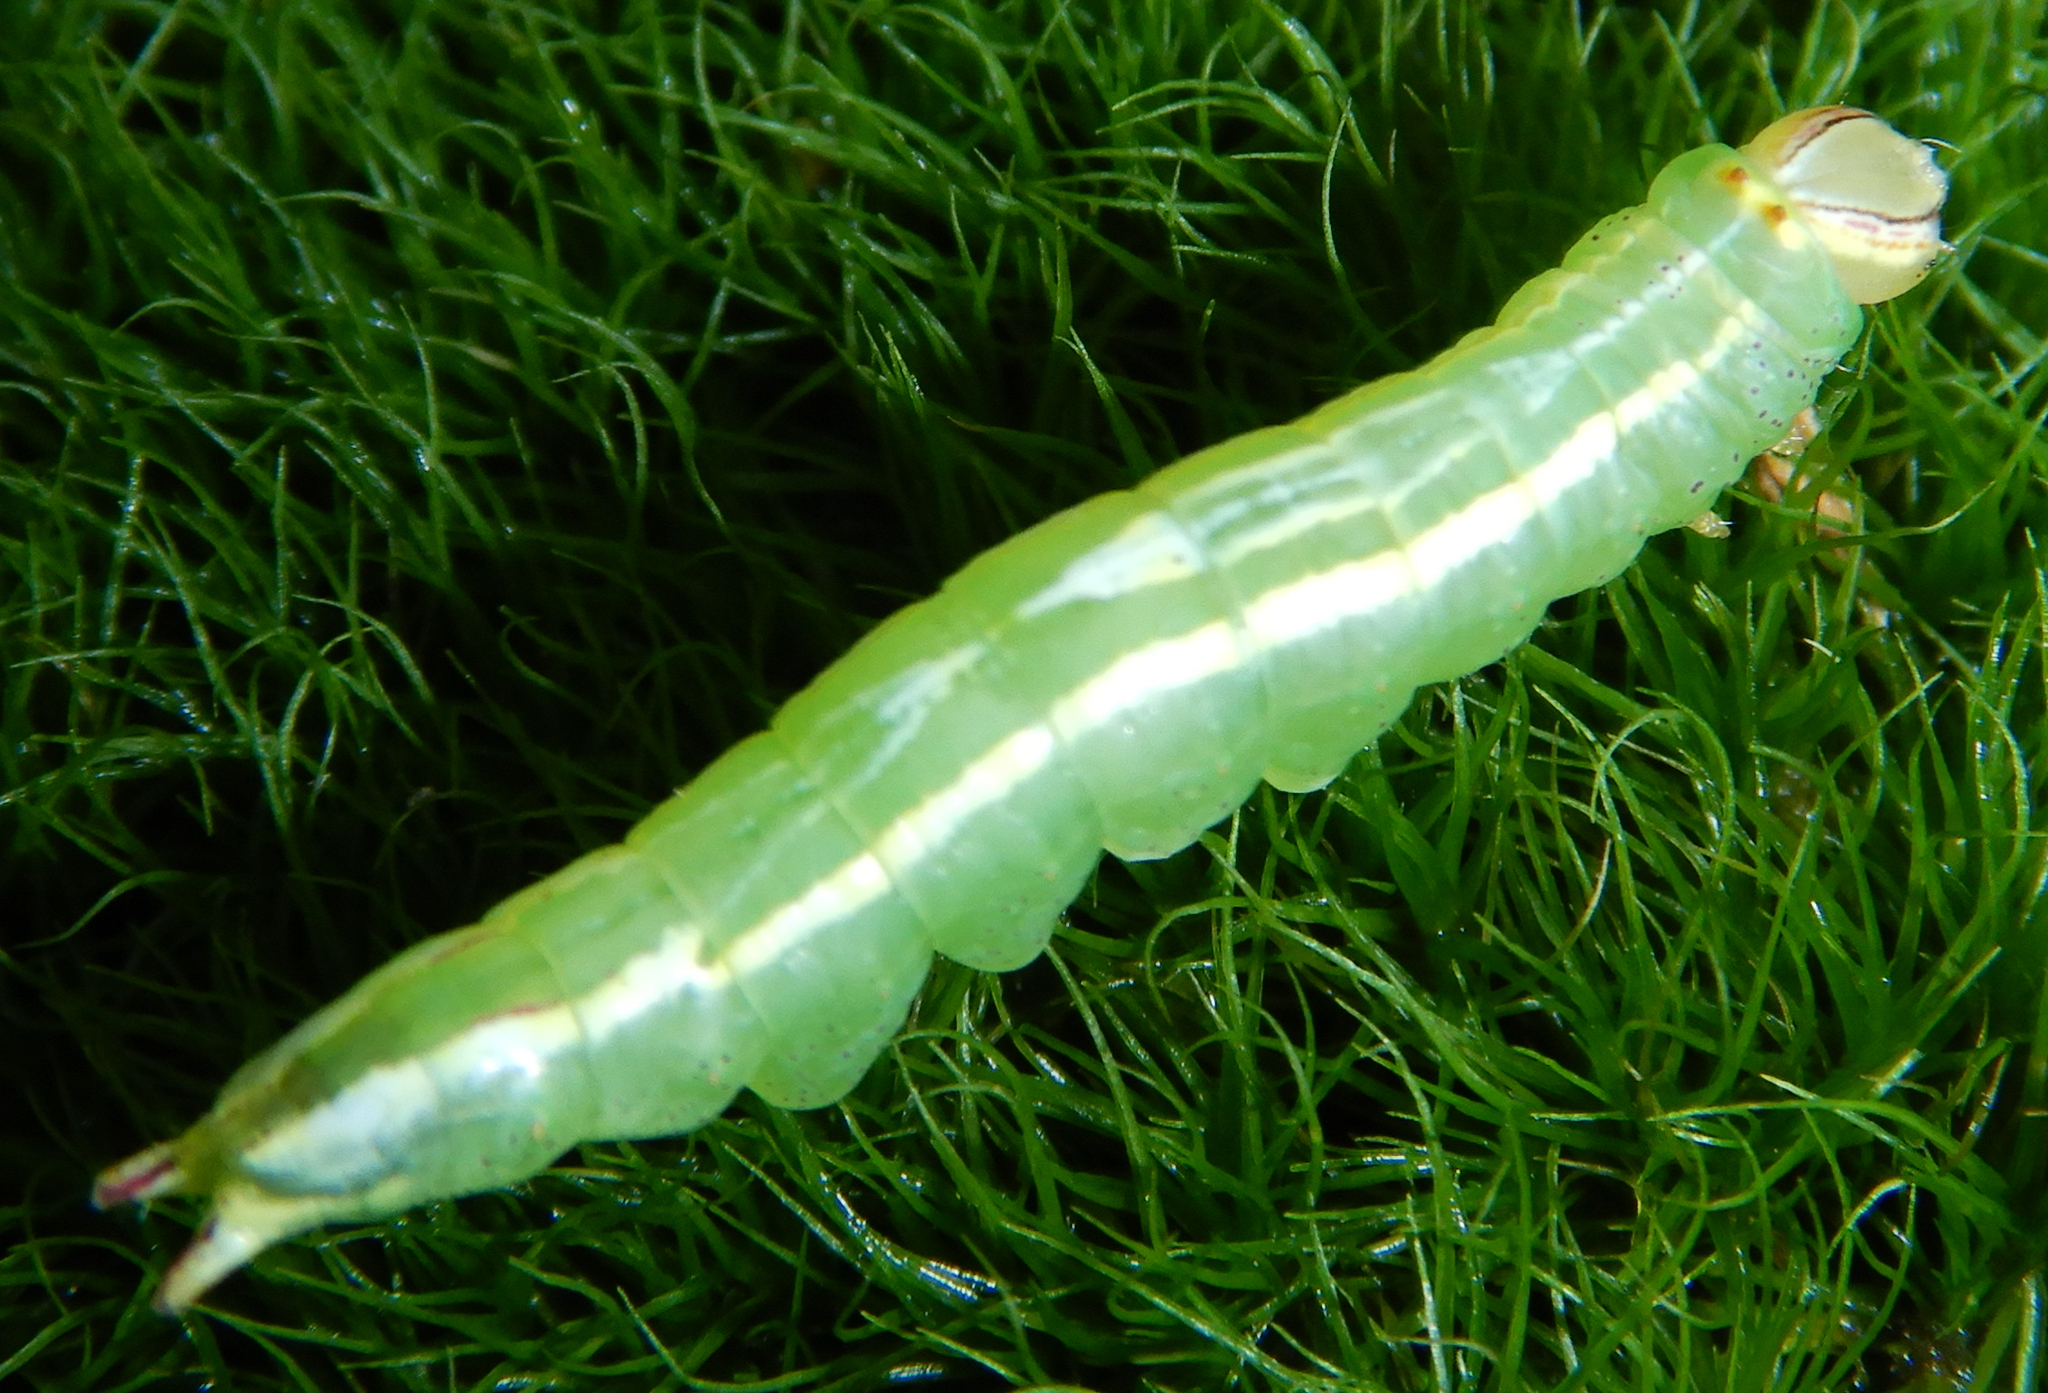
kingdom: Animalia
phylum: Arthropoda
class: Insecta
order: Lepidoptera
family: Notodontidae
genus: Disphragis
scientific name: Disphragis Cecrita guttivitta
